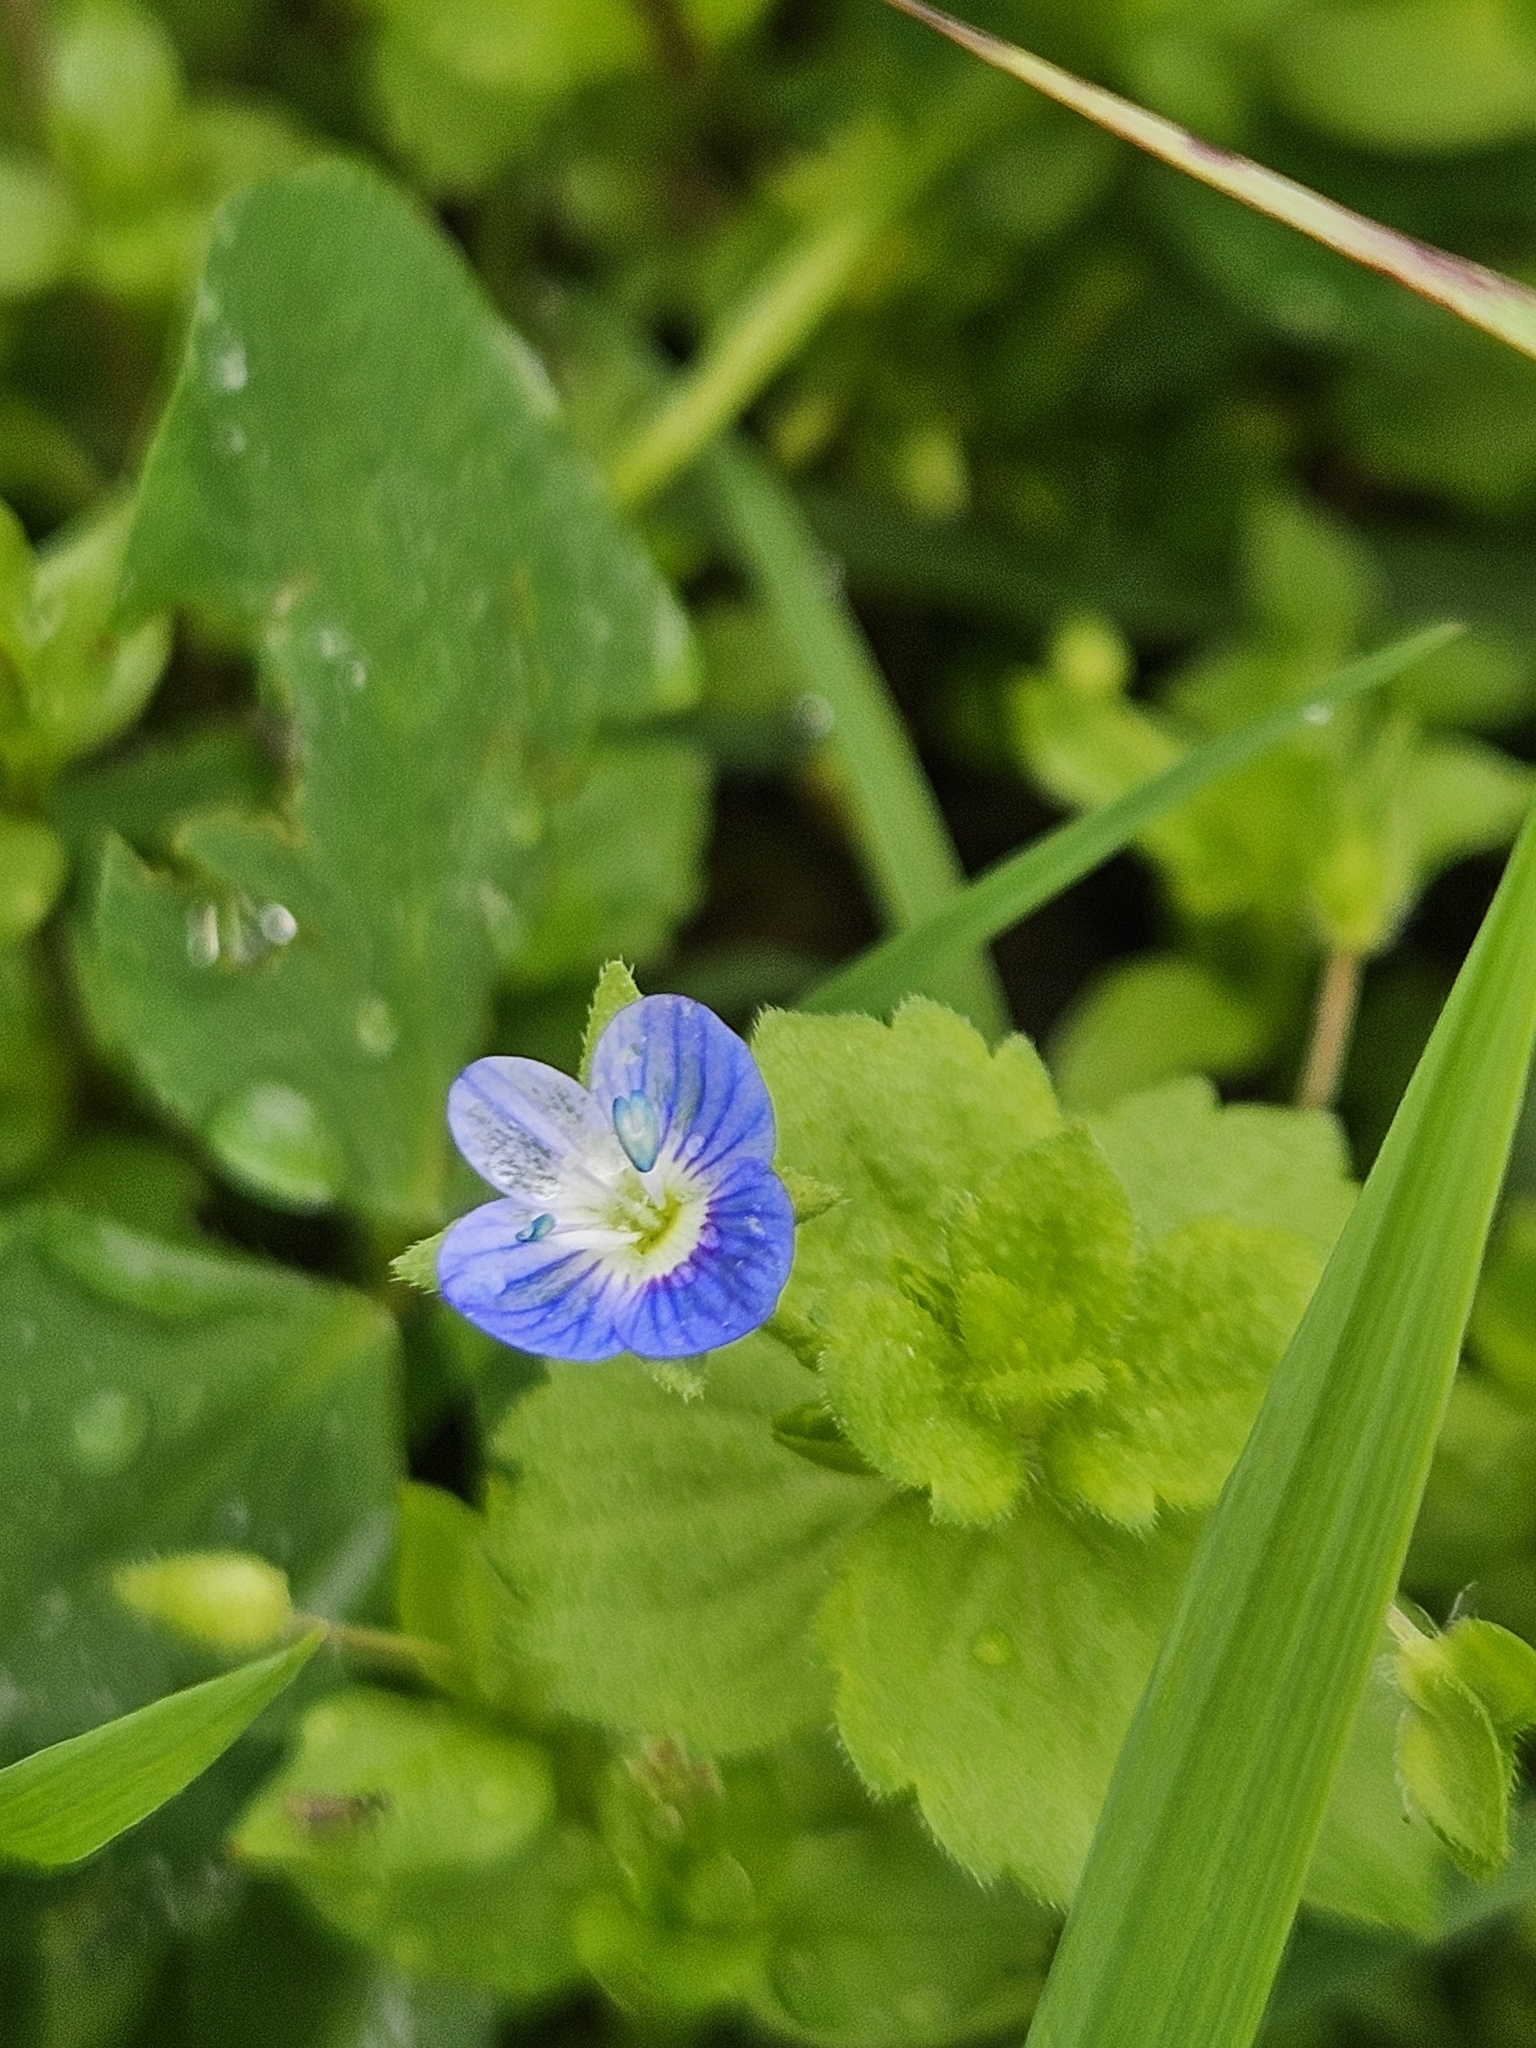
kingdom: Plantae
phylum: Tracheophyta
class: Magnoliopsida
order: Lamiales
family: Plantaginaceae
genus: Veronica
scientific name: Veronica persica
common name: Common field-speedwell
